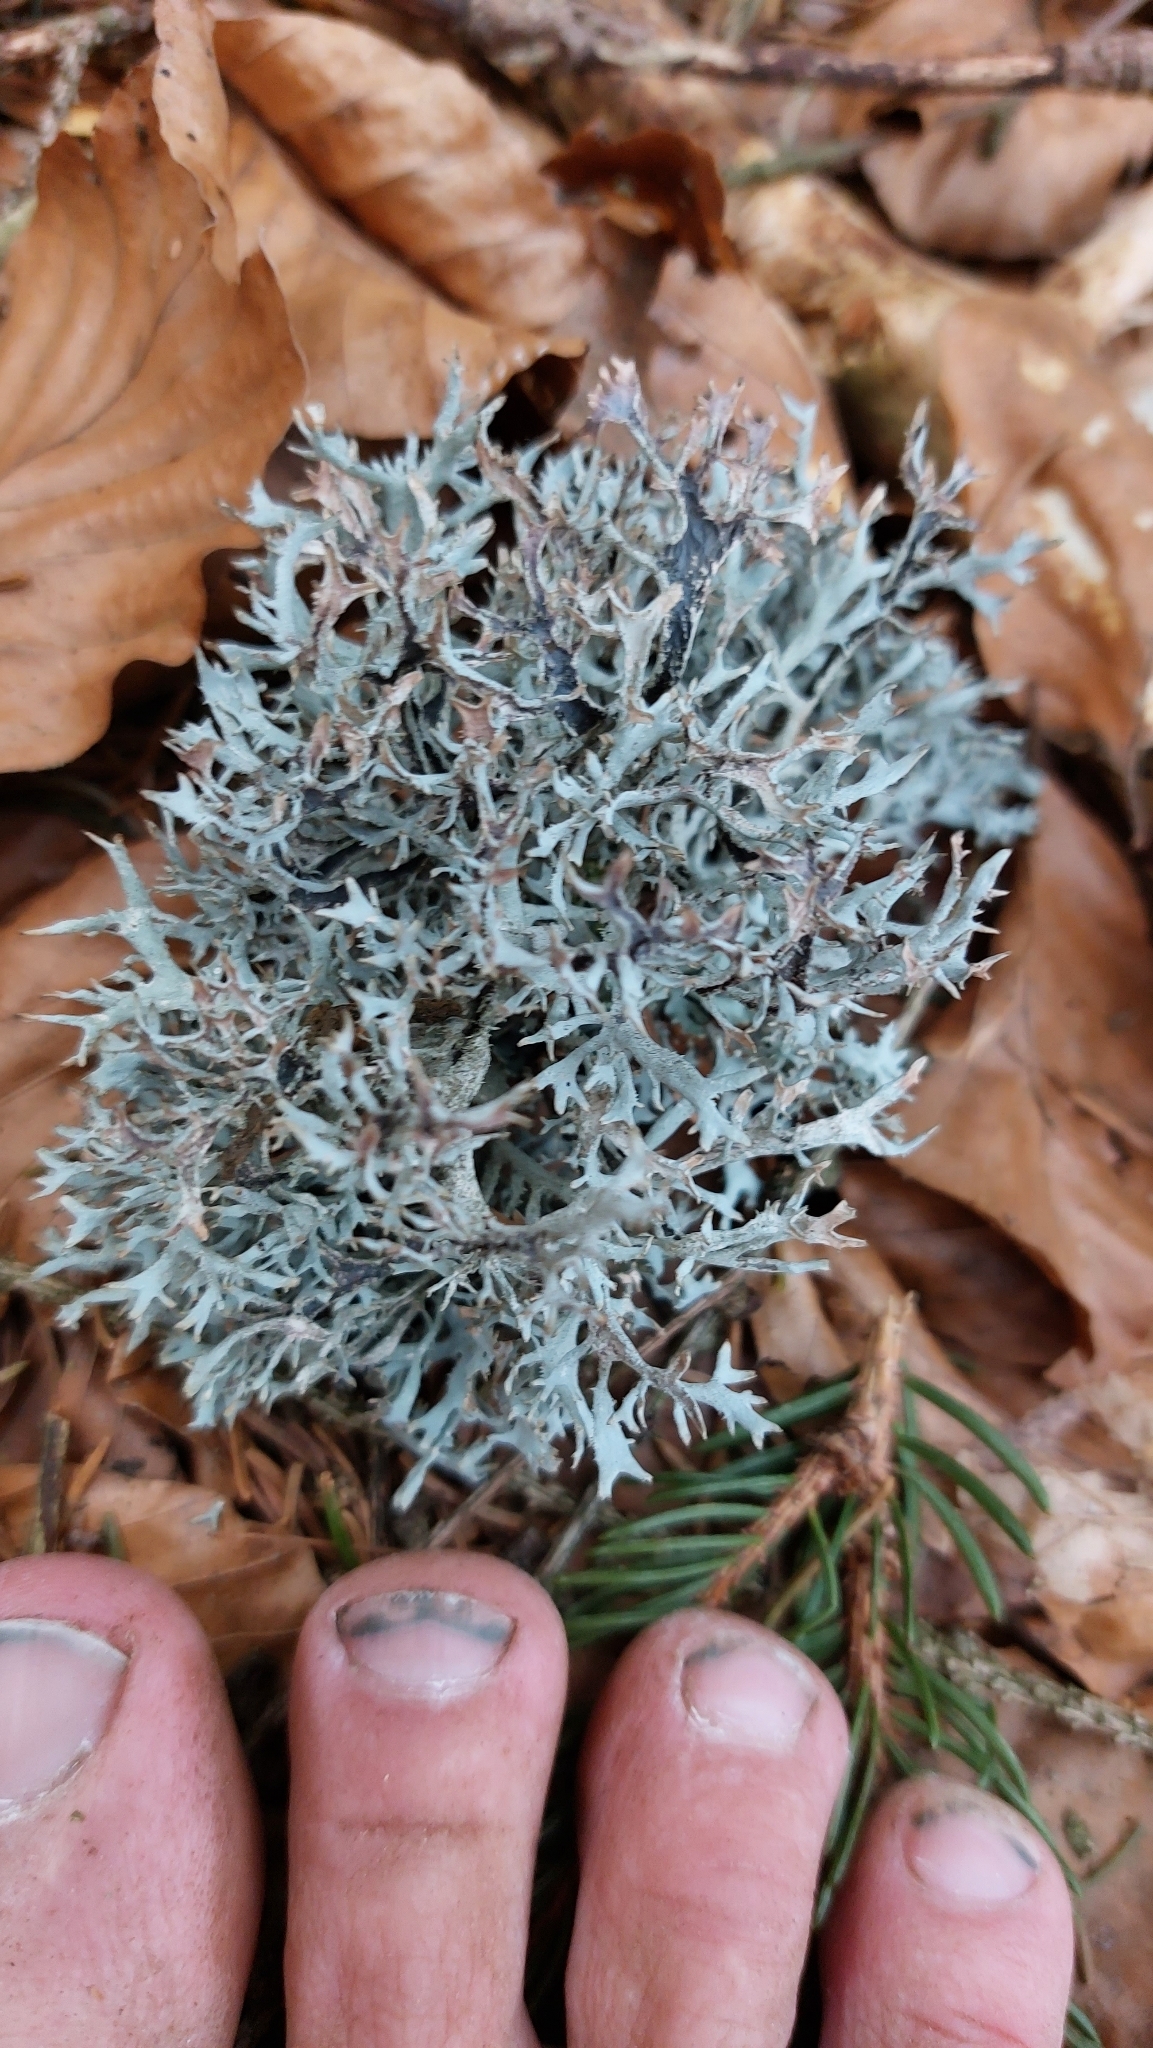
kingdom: Fungi
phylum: Ascomycota
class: Lecanoromycetes
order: Lecanorales
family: Parmeliaceae
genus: Pseudevernia
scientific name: Pseudevernia furfuracea
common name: Tree moss
